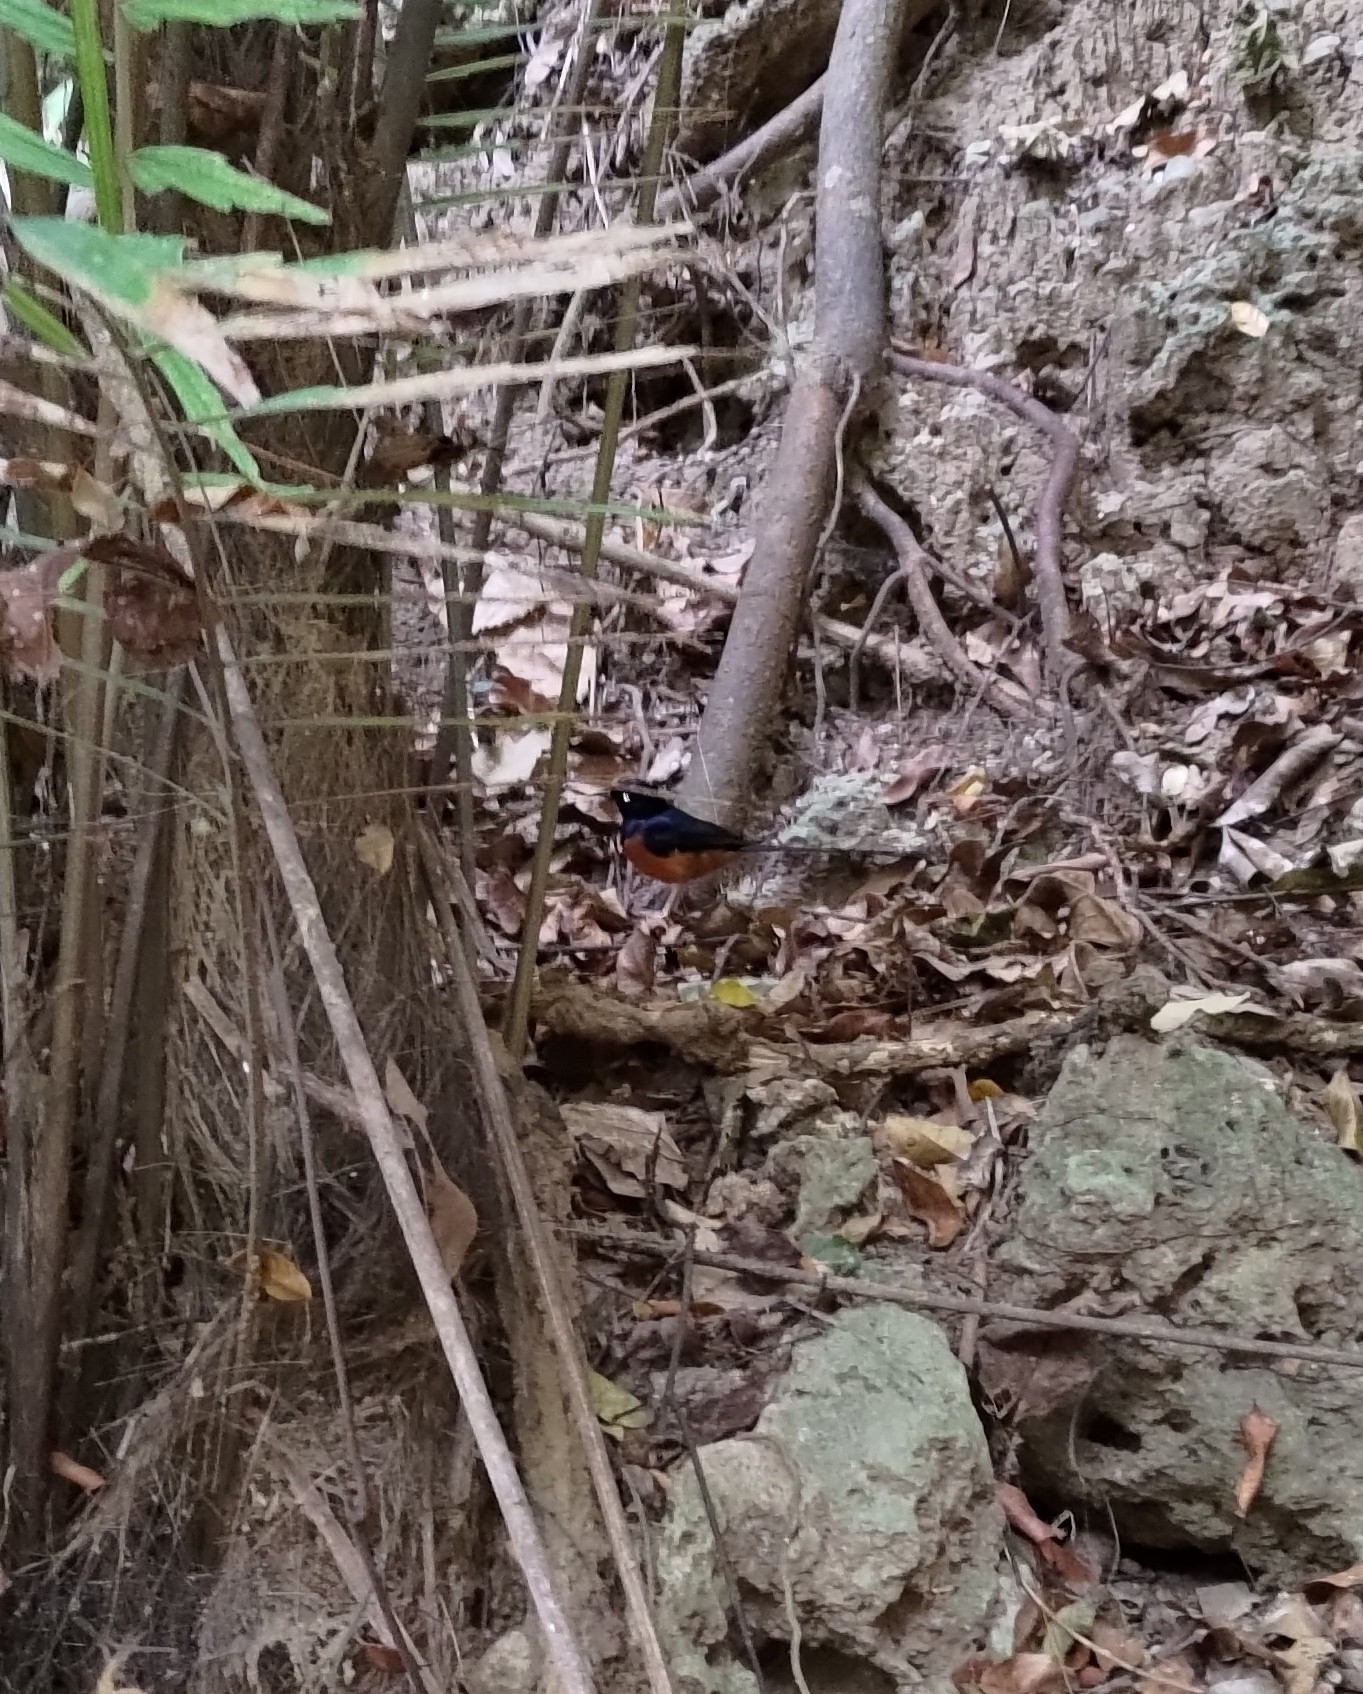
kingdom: Animalia
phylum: Chordata
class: Aves
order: Passeriformes
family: Muscicapidae
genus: Copsychus
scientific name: Copsychus malabaricus
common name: White-rumped shama
